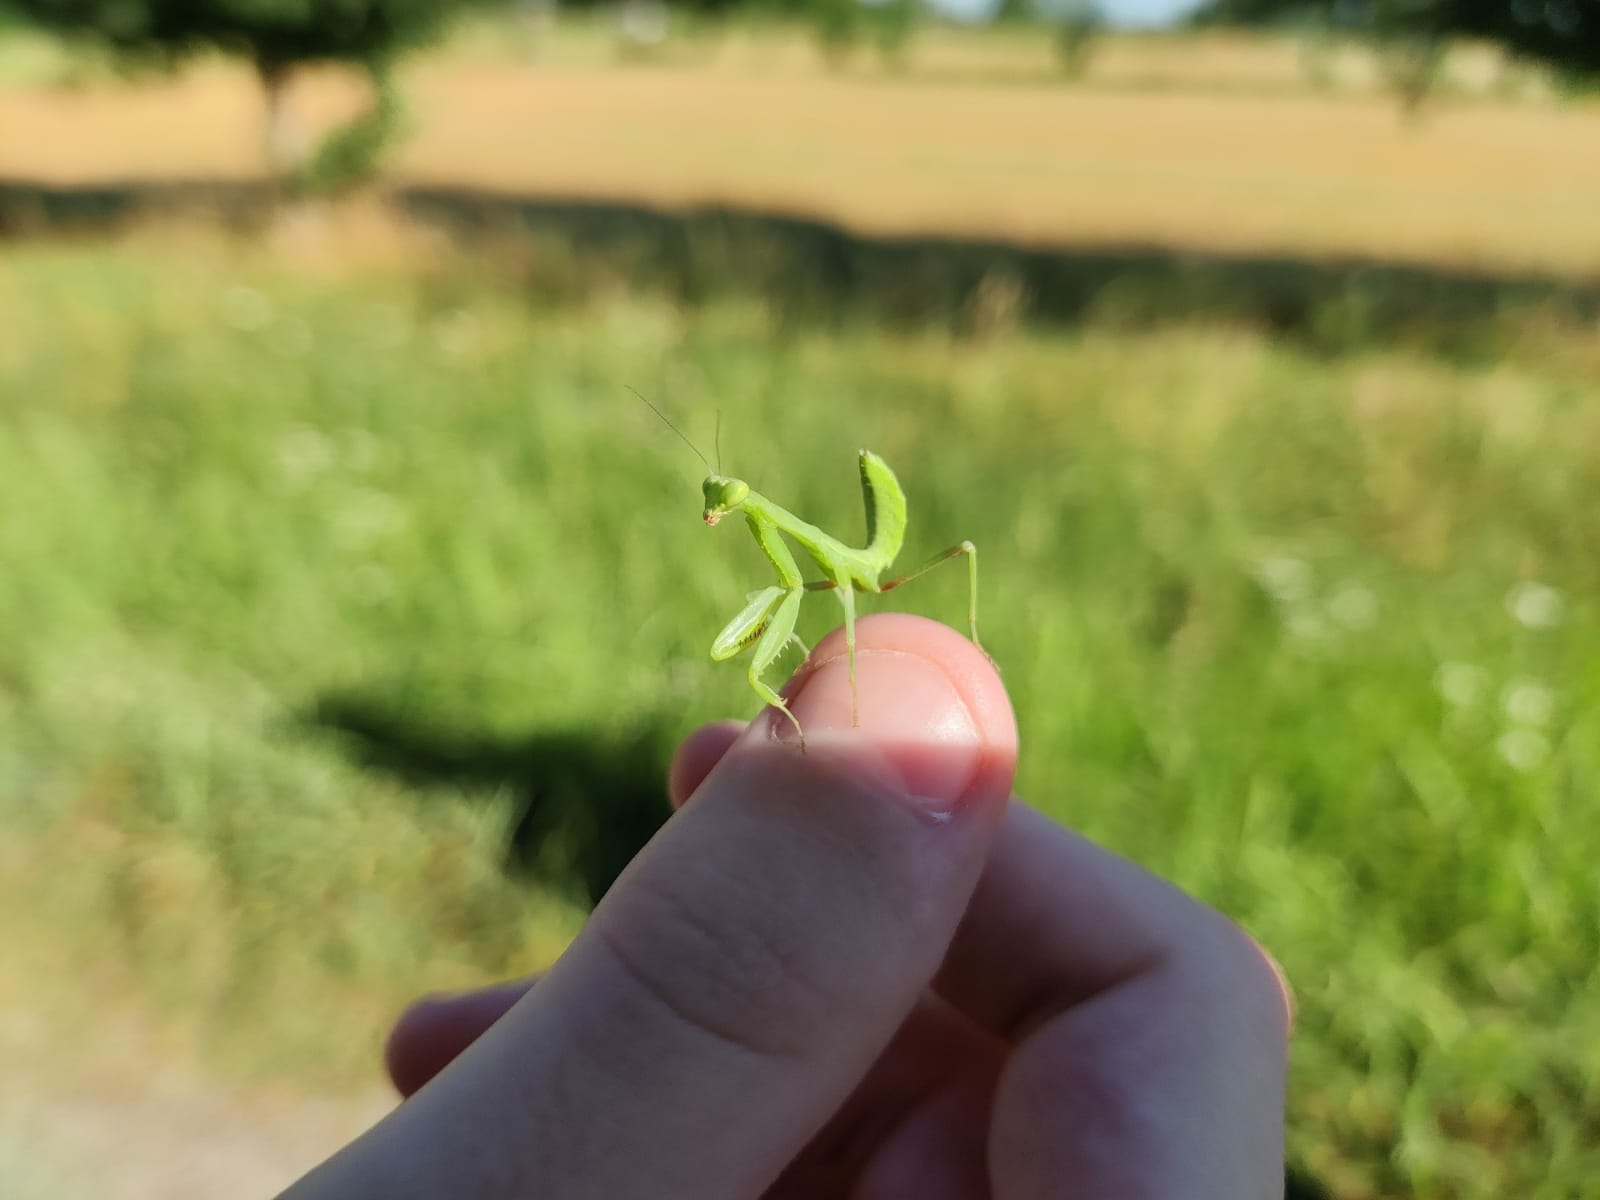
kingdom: Animalia
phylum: Arthropoda
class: Insecta
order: Mantodea
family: Mantidae
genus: Hierodula
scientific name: Hierodula transcaucasica
